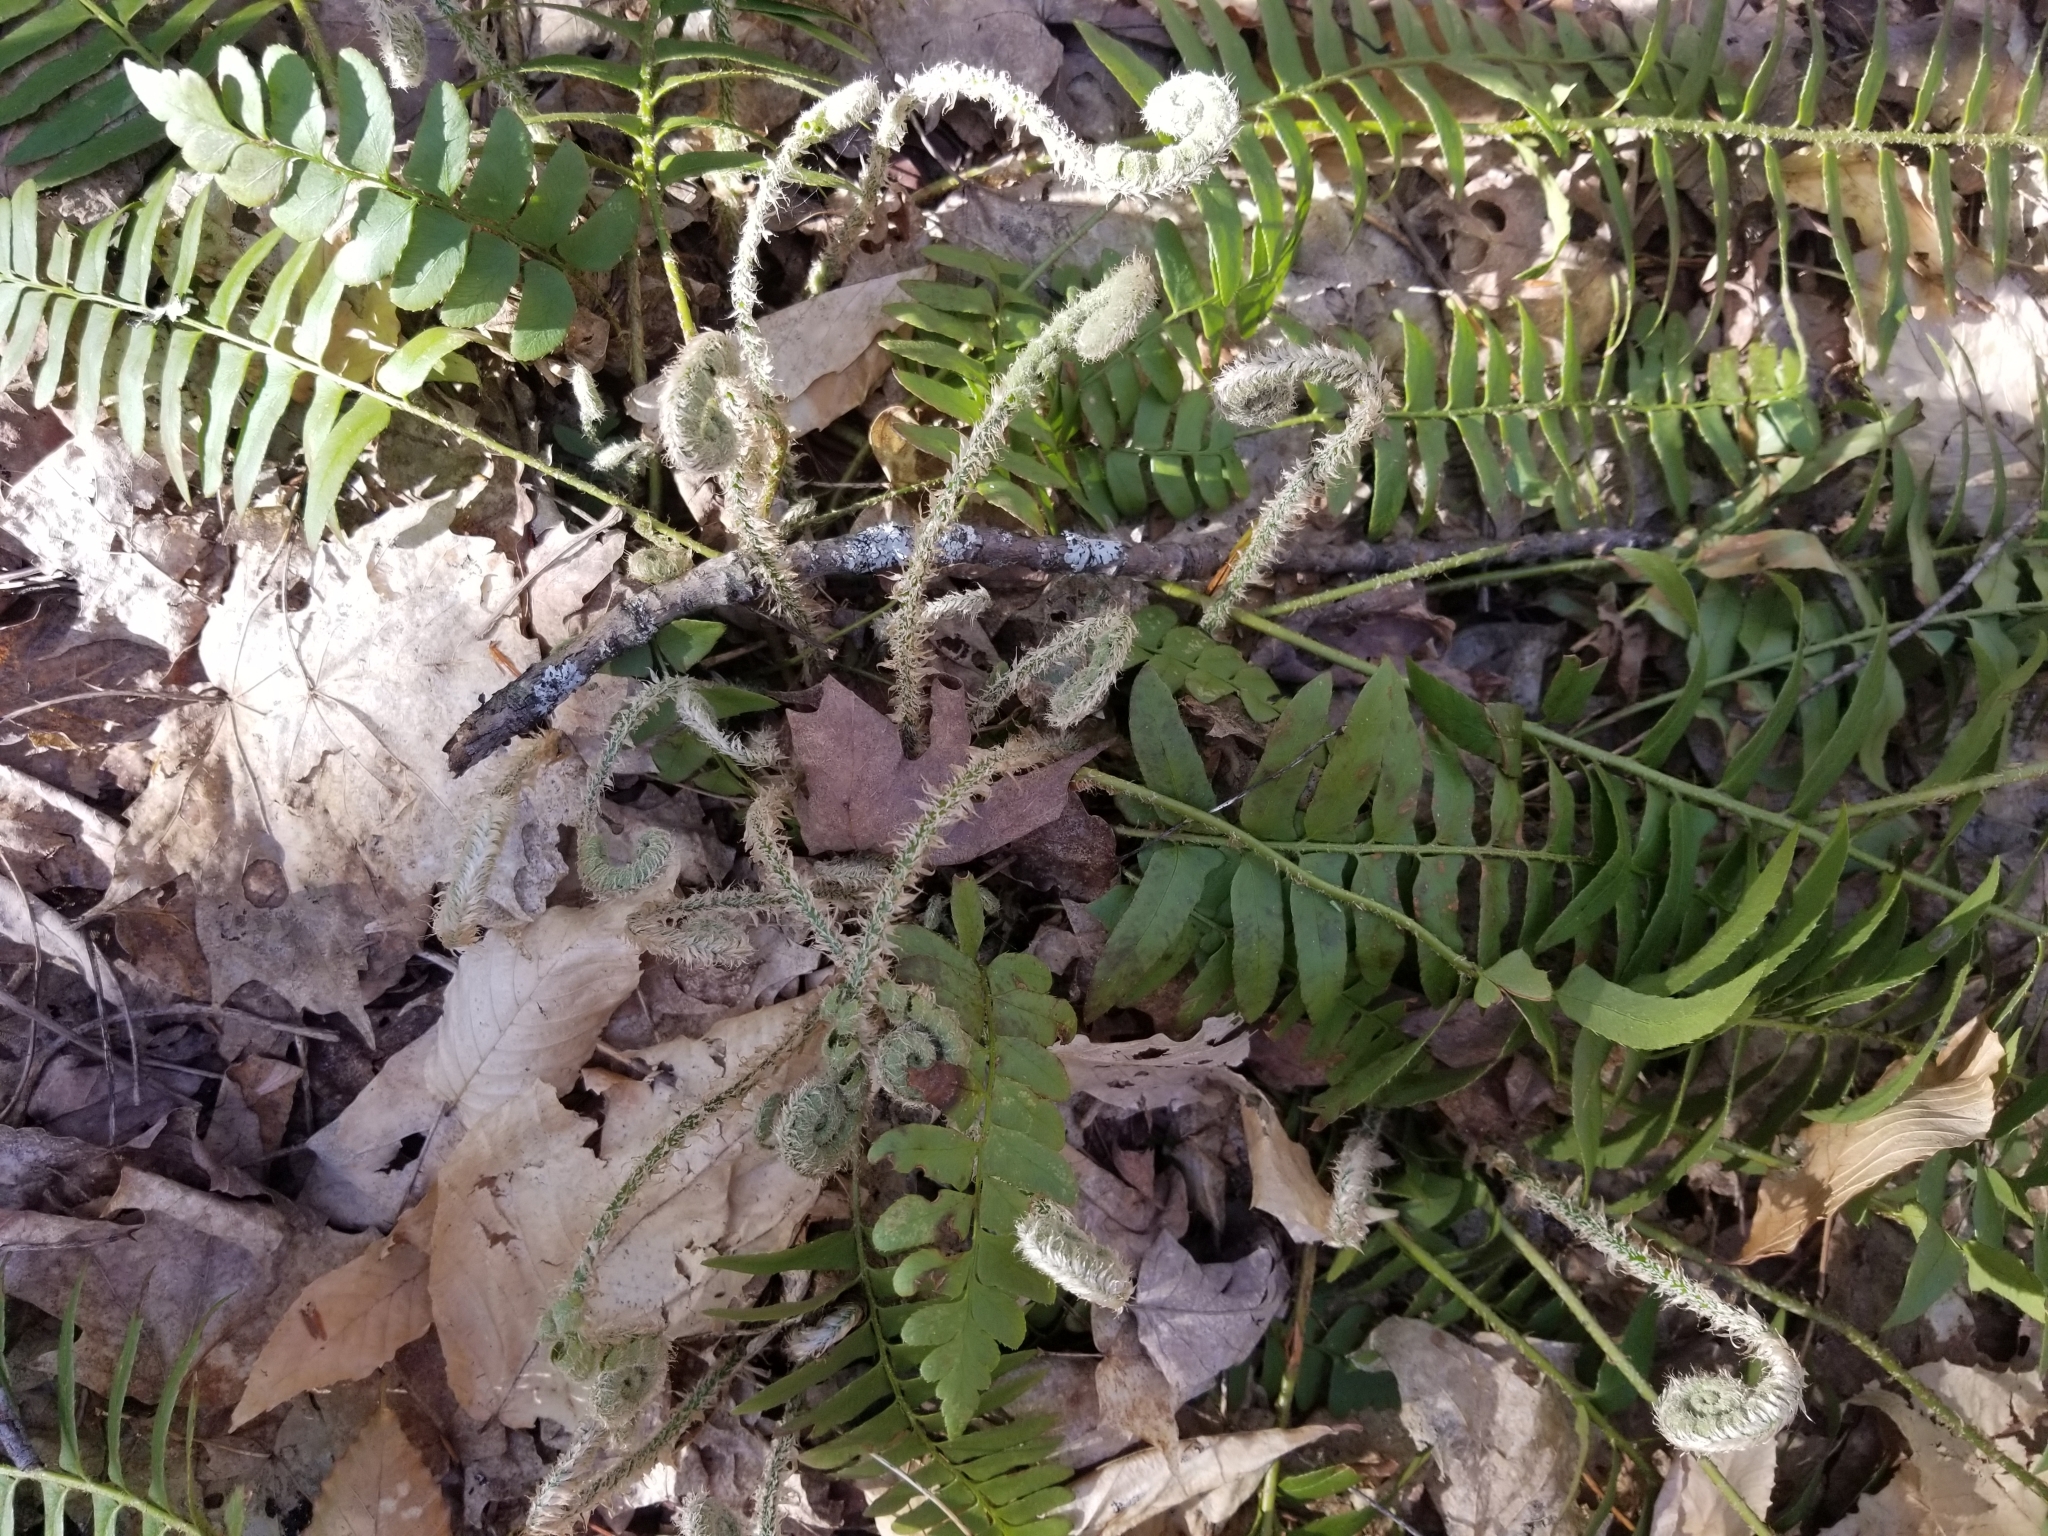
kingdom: Plantae
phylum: Tracheophyta
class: Polypodiopsida
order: Polypodiales
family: Dryopteridaceae
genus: Polystichum
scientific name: Polystichum acrostichoides
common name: Christmas fern
